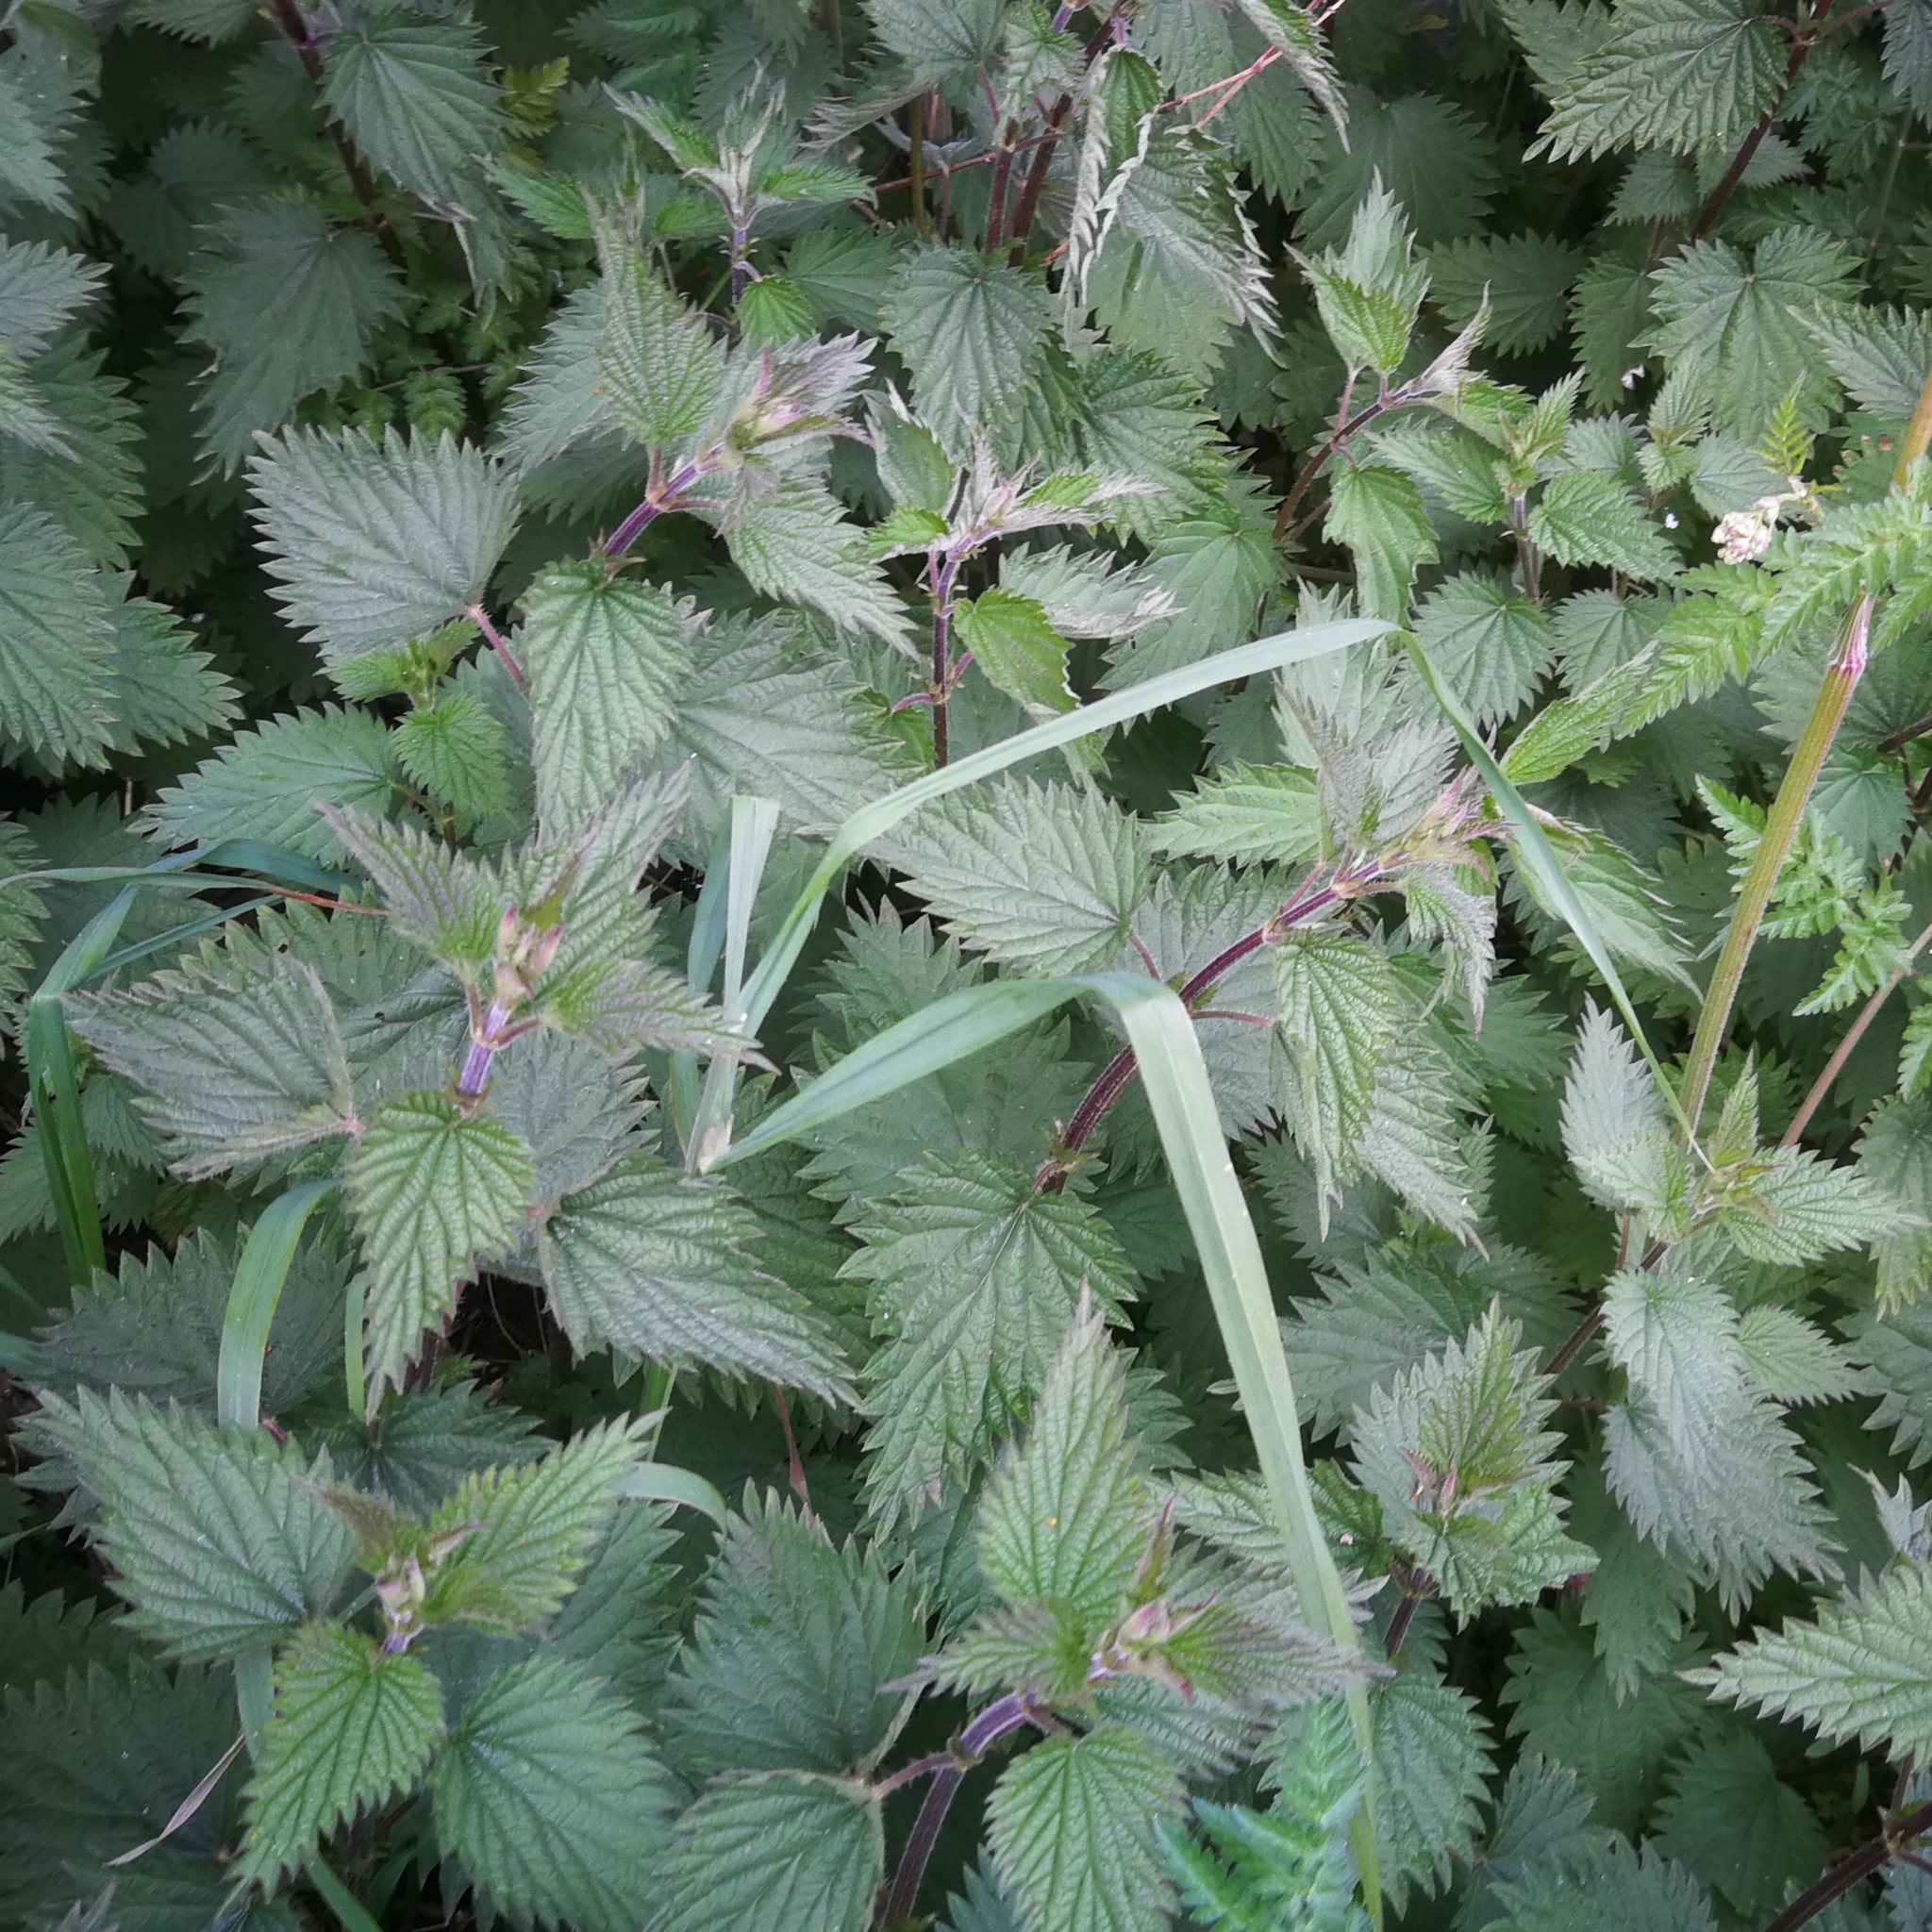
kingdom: Plantae
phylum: Tracheophyta
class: Magnoliopsida
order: Rosales
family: Urticaceae
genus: Urtica
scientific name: Urtica dioica
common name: Common nettle
